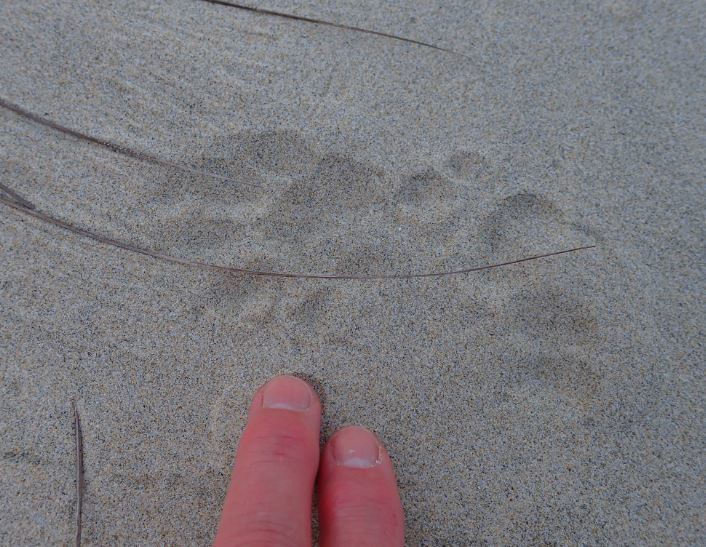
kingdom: Animalia
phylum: Chordata
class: Mammalia
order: Carnivora
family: Felidae
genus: Felis
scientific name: Felis catus
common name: Domestic cat
